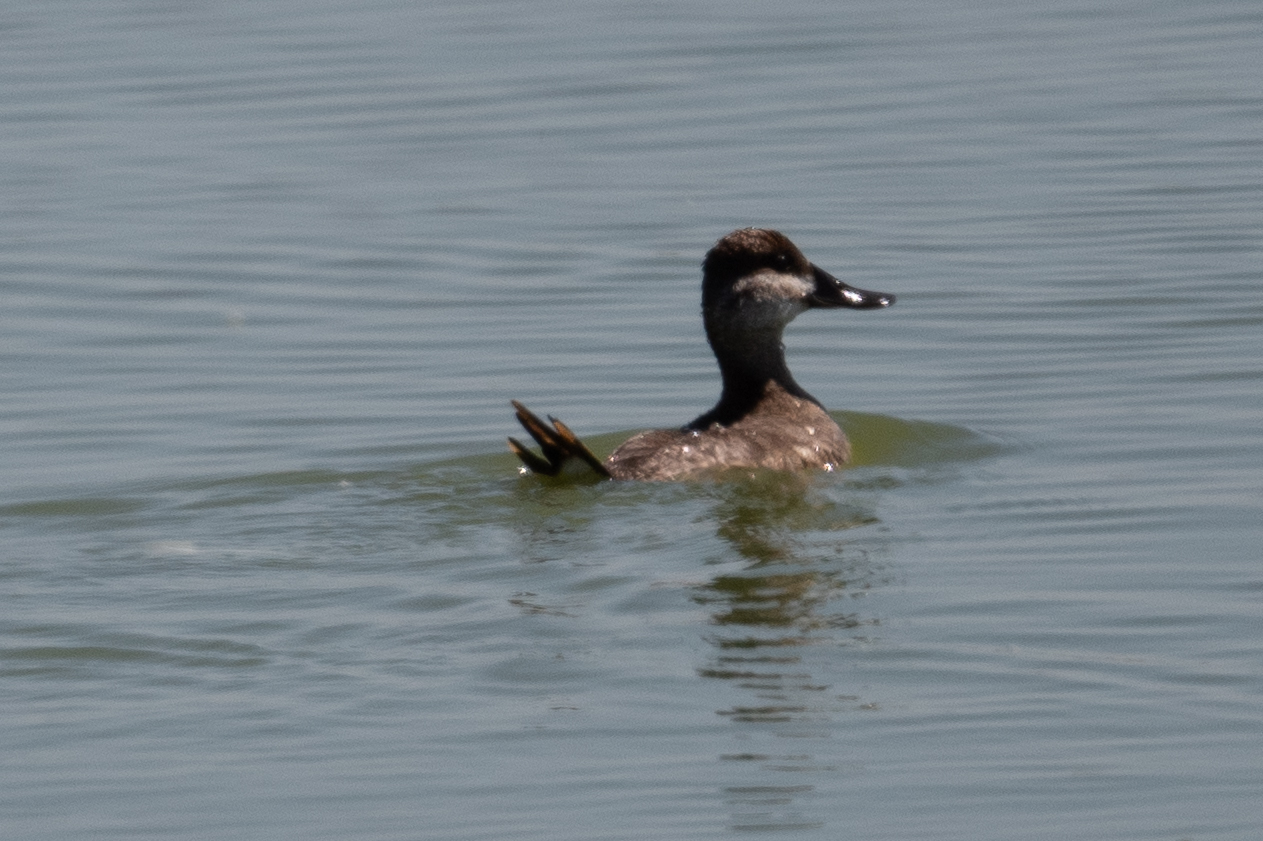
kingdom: Animalia
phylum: Chordata
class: Aves
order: Anseriformes
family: Anatidae
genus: Oxyura
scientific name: Oxyura jamaicensis
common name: Ruddy duck
